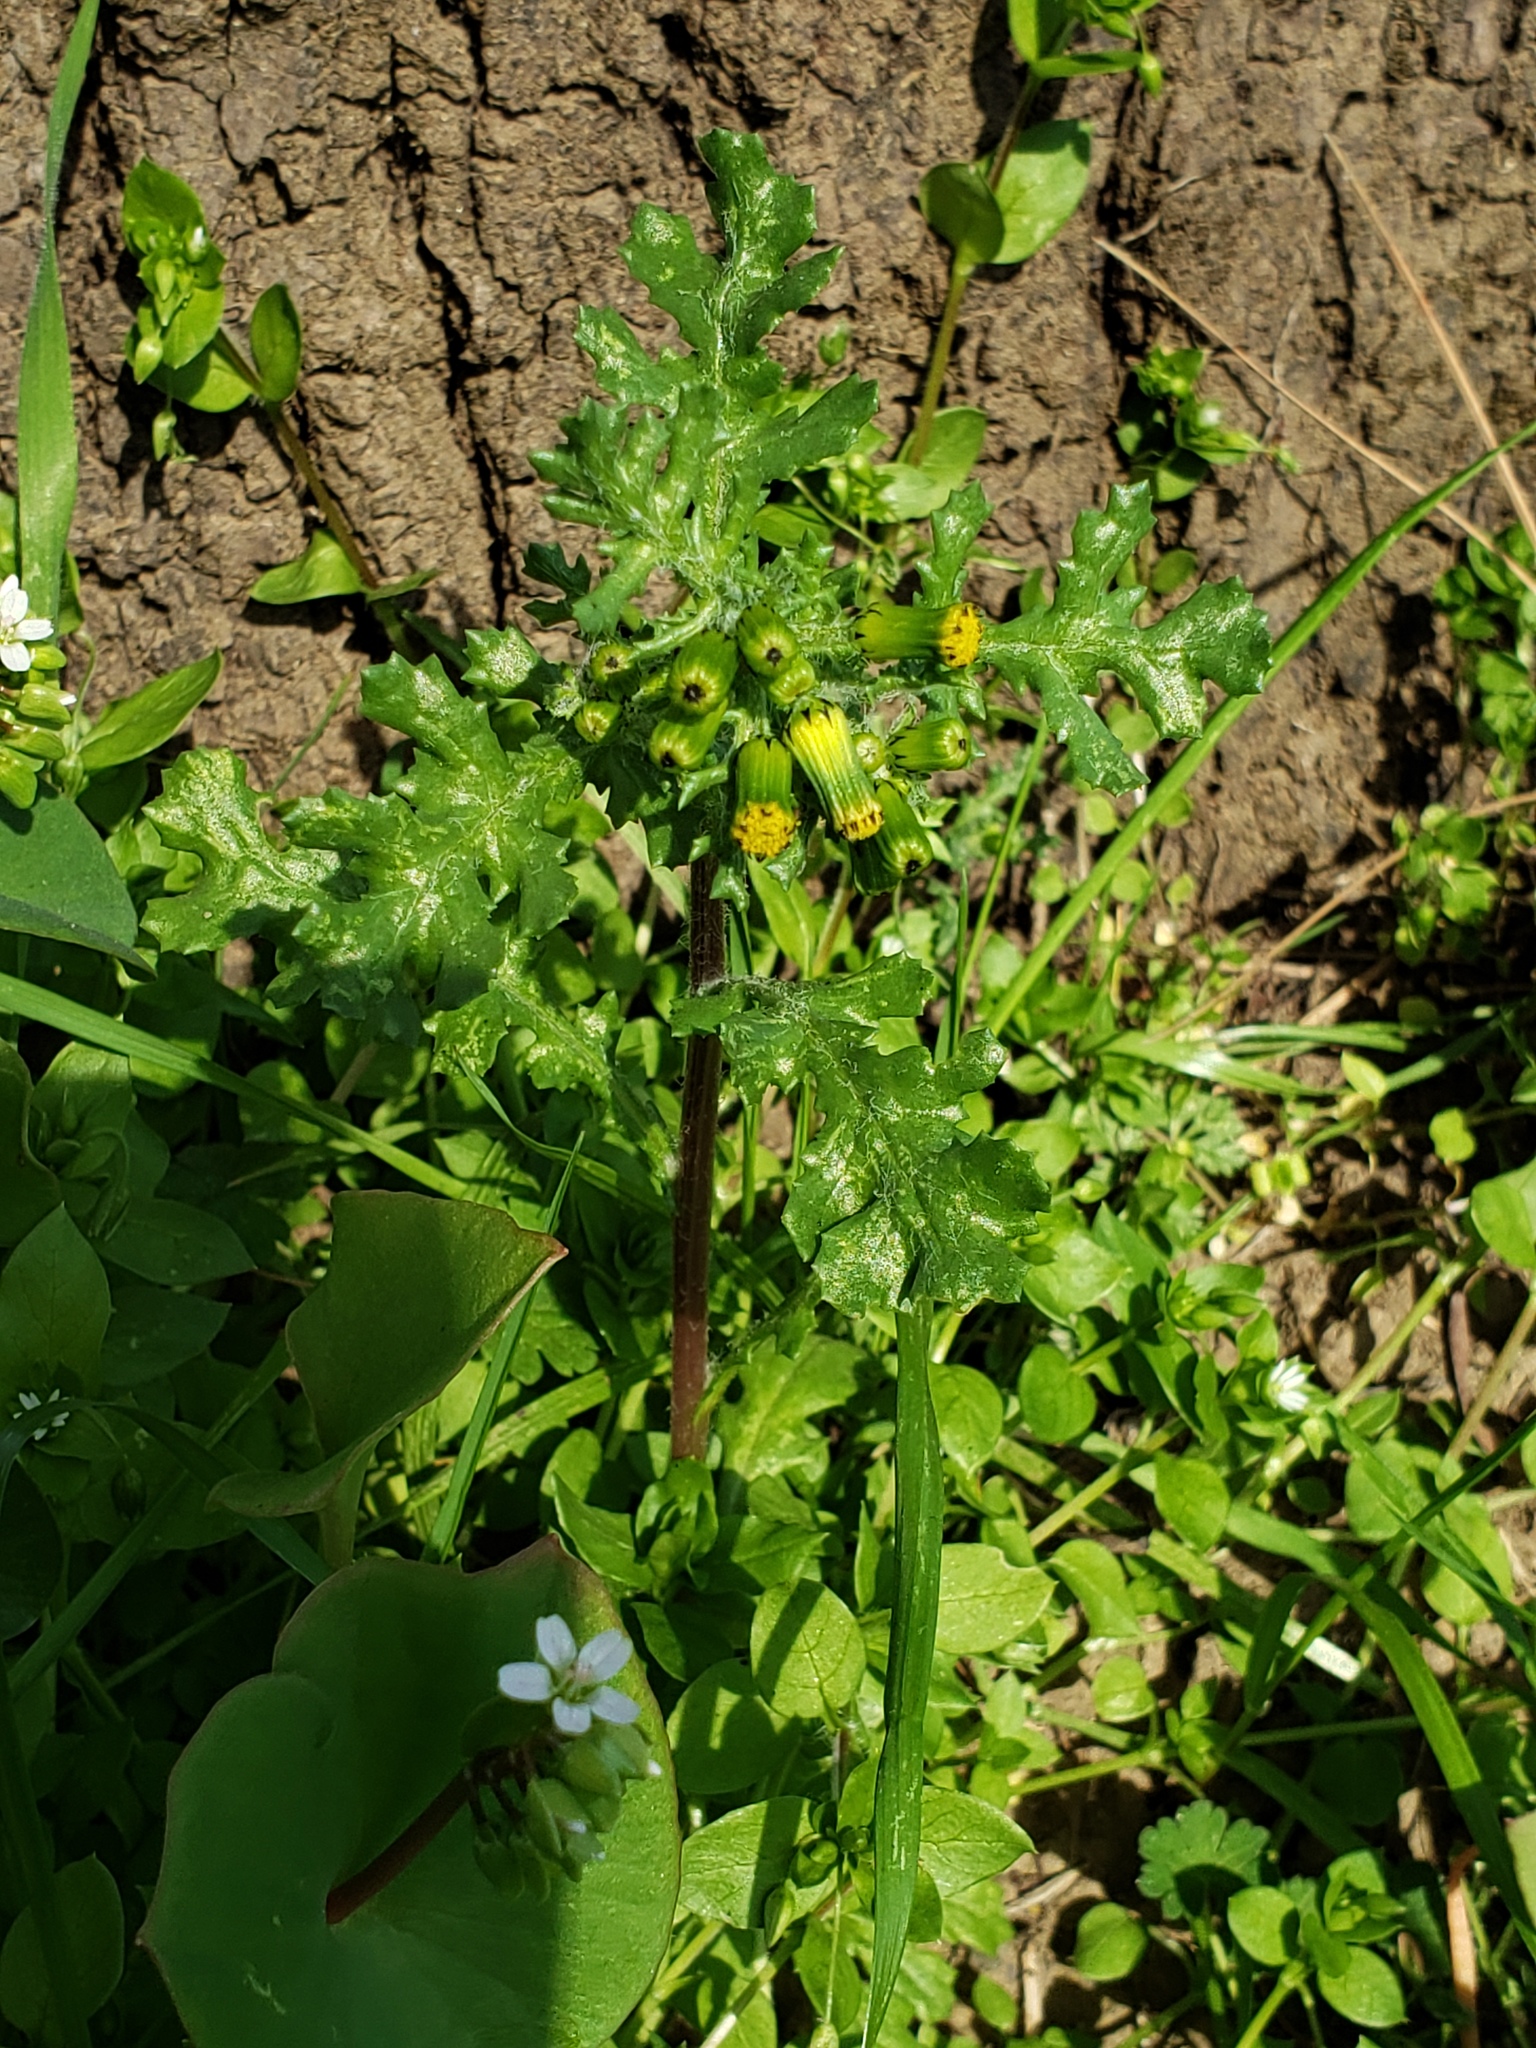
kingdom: Plantae
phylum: Tracheophyta
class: Magnoliopsida
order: Asterales
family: Asteraceae
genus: Senecio
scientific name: Senecio vulgaris
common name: Old-man-in-the-spring
